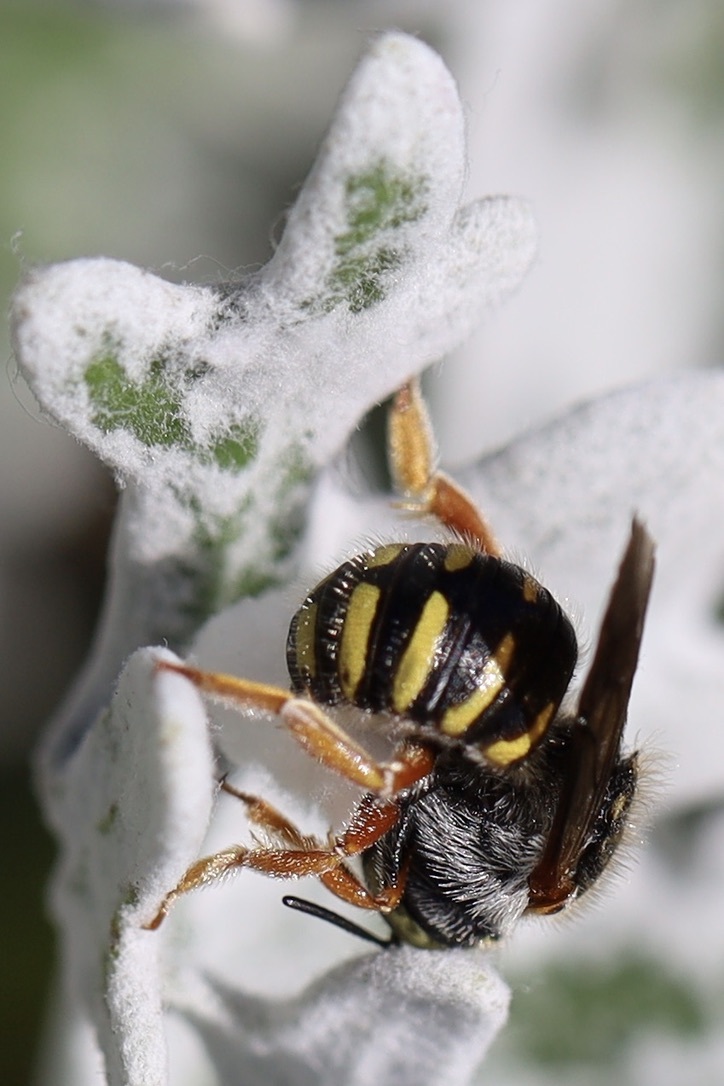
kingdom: Animalia
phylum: Arthropoda
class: Insecta
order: Hymenoptera
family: Megachilidae
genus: Anthidium
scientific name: Anthidium oblongatum
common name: Oblong wool carder bee
